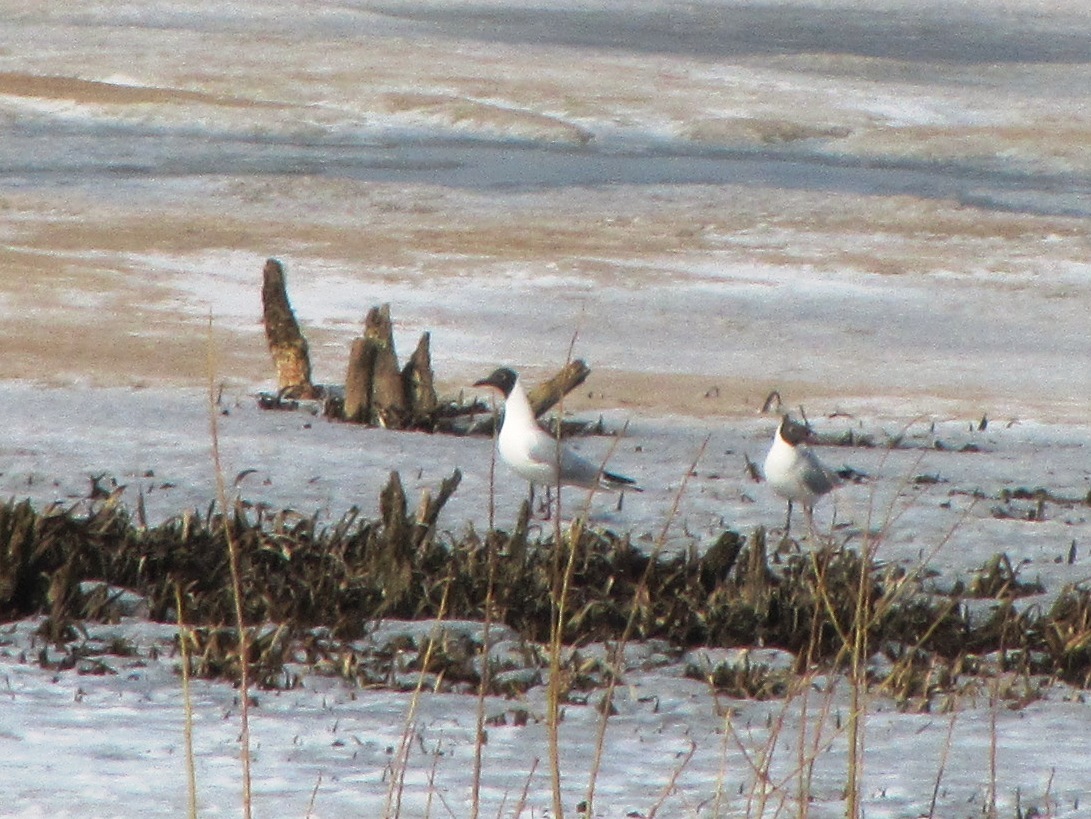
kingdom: Animalia
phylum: Chordata
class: Aves
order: Charadriiformes
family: Laridae
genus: Chroicocephalus
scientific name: Chroicocephalus ridibundus
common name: Black-headed gull
